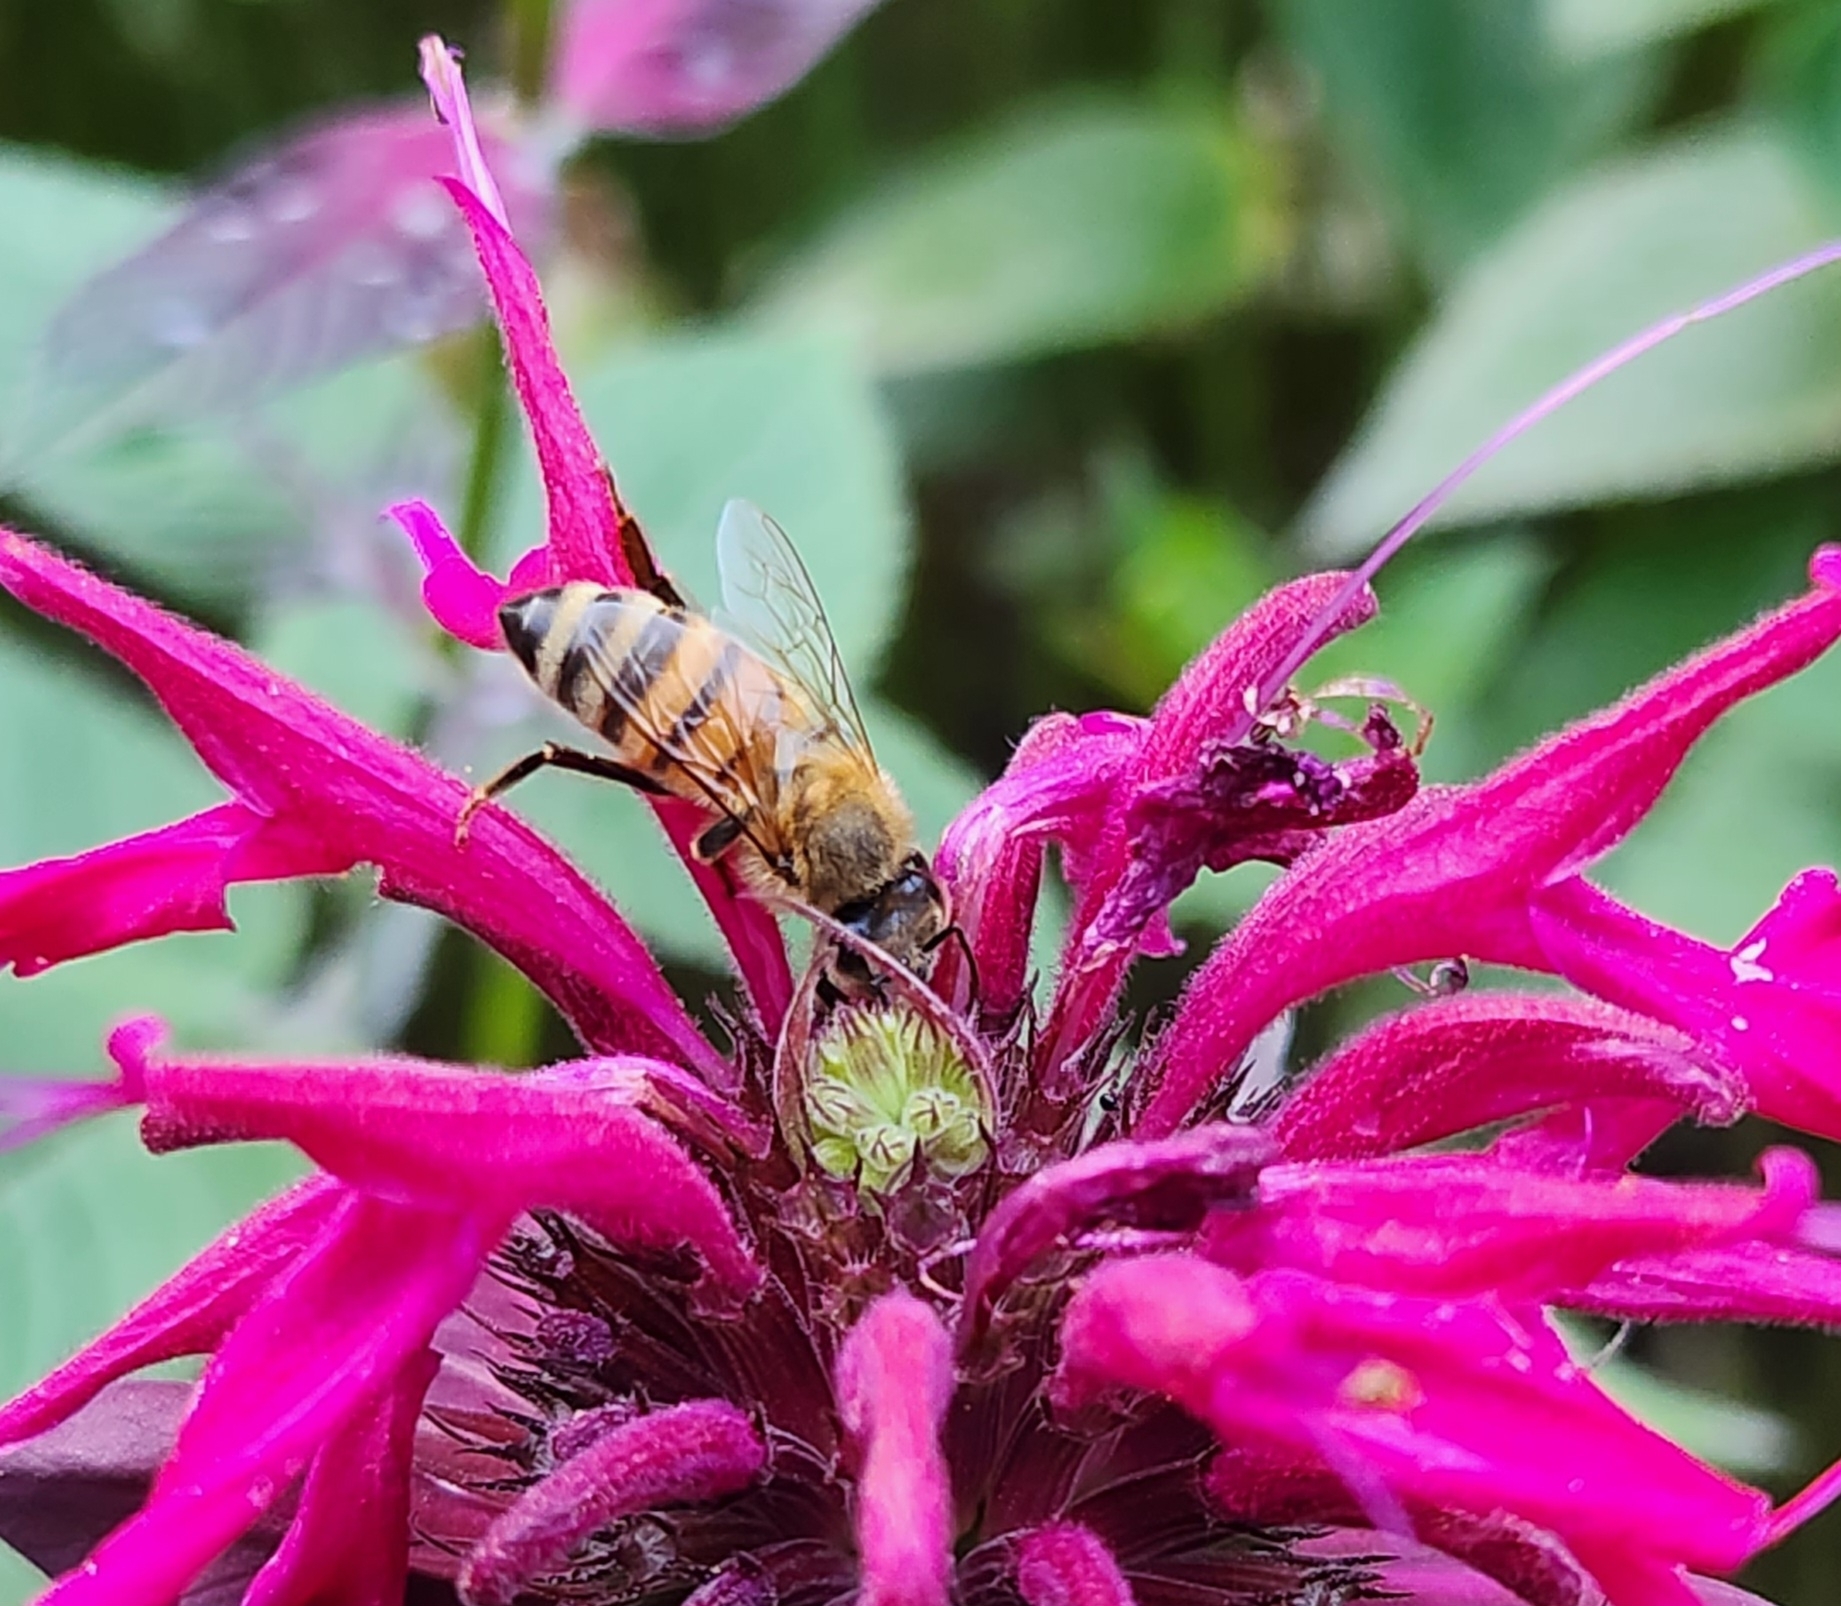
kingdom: Animalia
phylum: Arthropoda
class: Insecta
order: Hymenoptera
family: Apidae
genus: Apis
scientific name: Apis mellifera
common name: Honey bee
